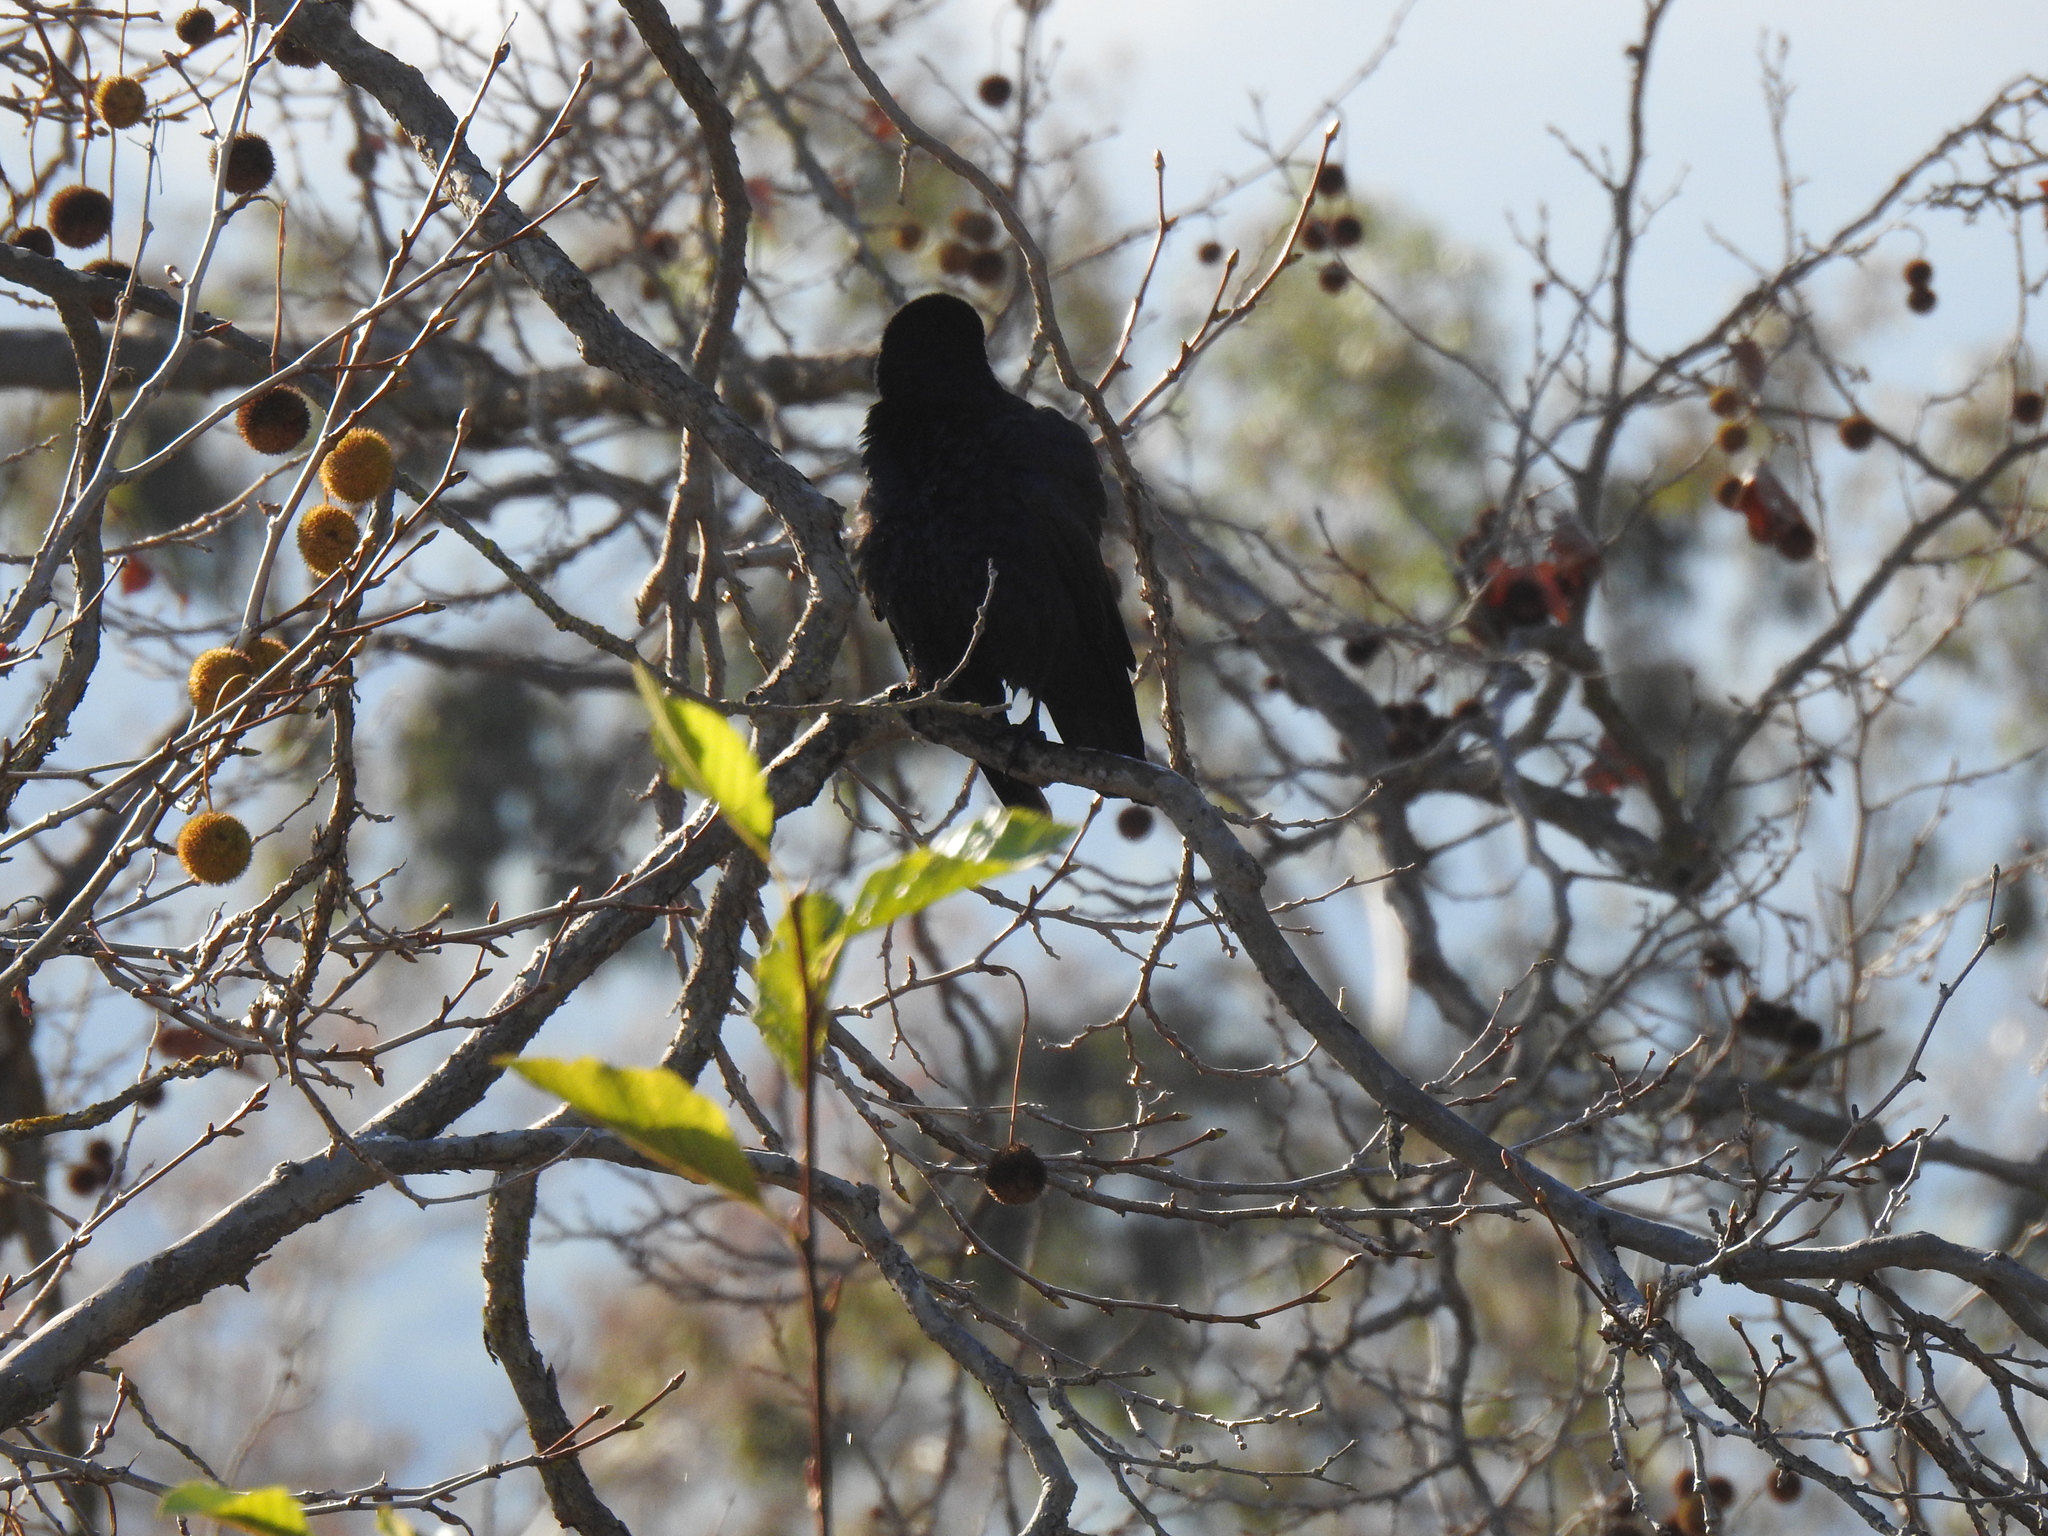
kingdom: Animalia
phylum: Chordata
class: Aves
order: Passeriformes
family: Corvidae
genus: Corvus
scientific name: Corvus brachyrhynchos
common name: American crow
